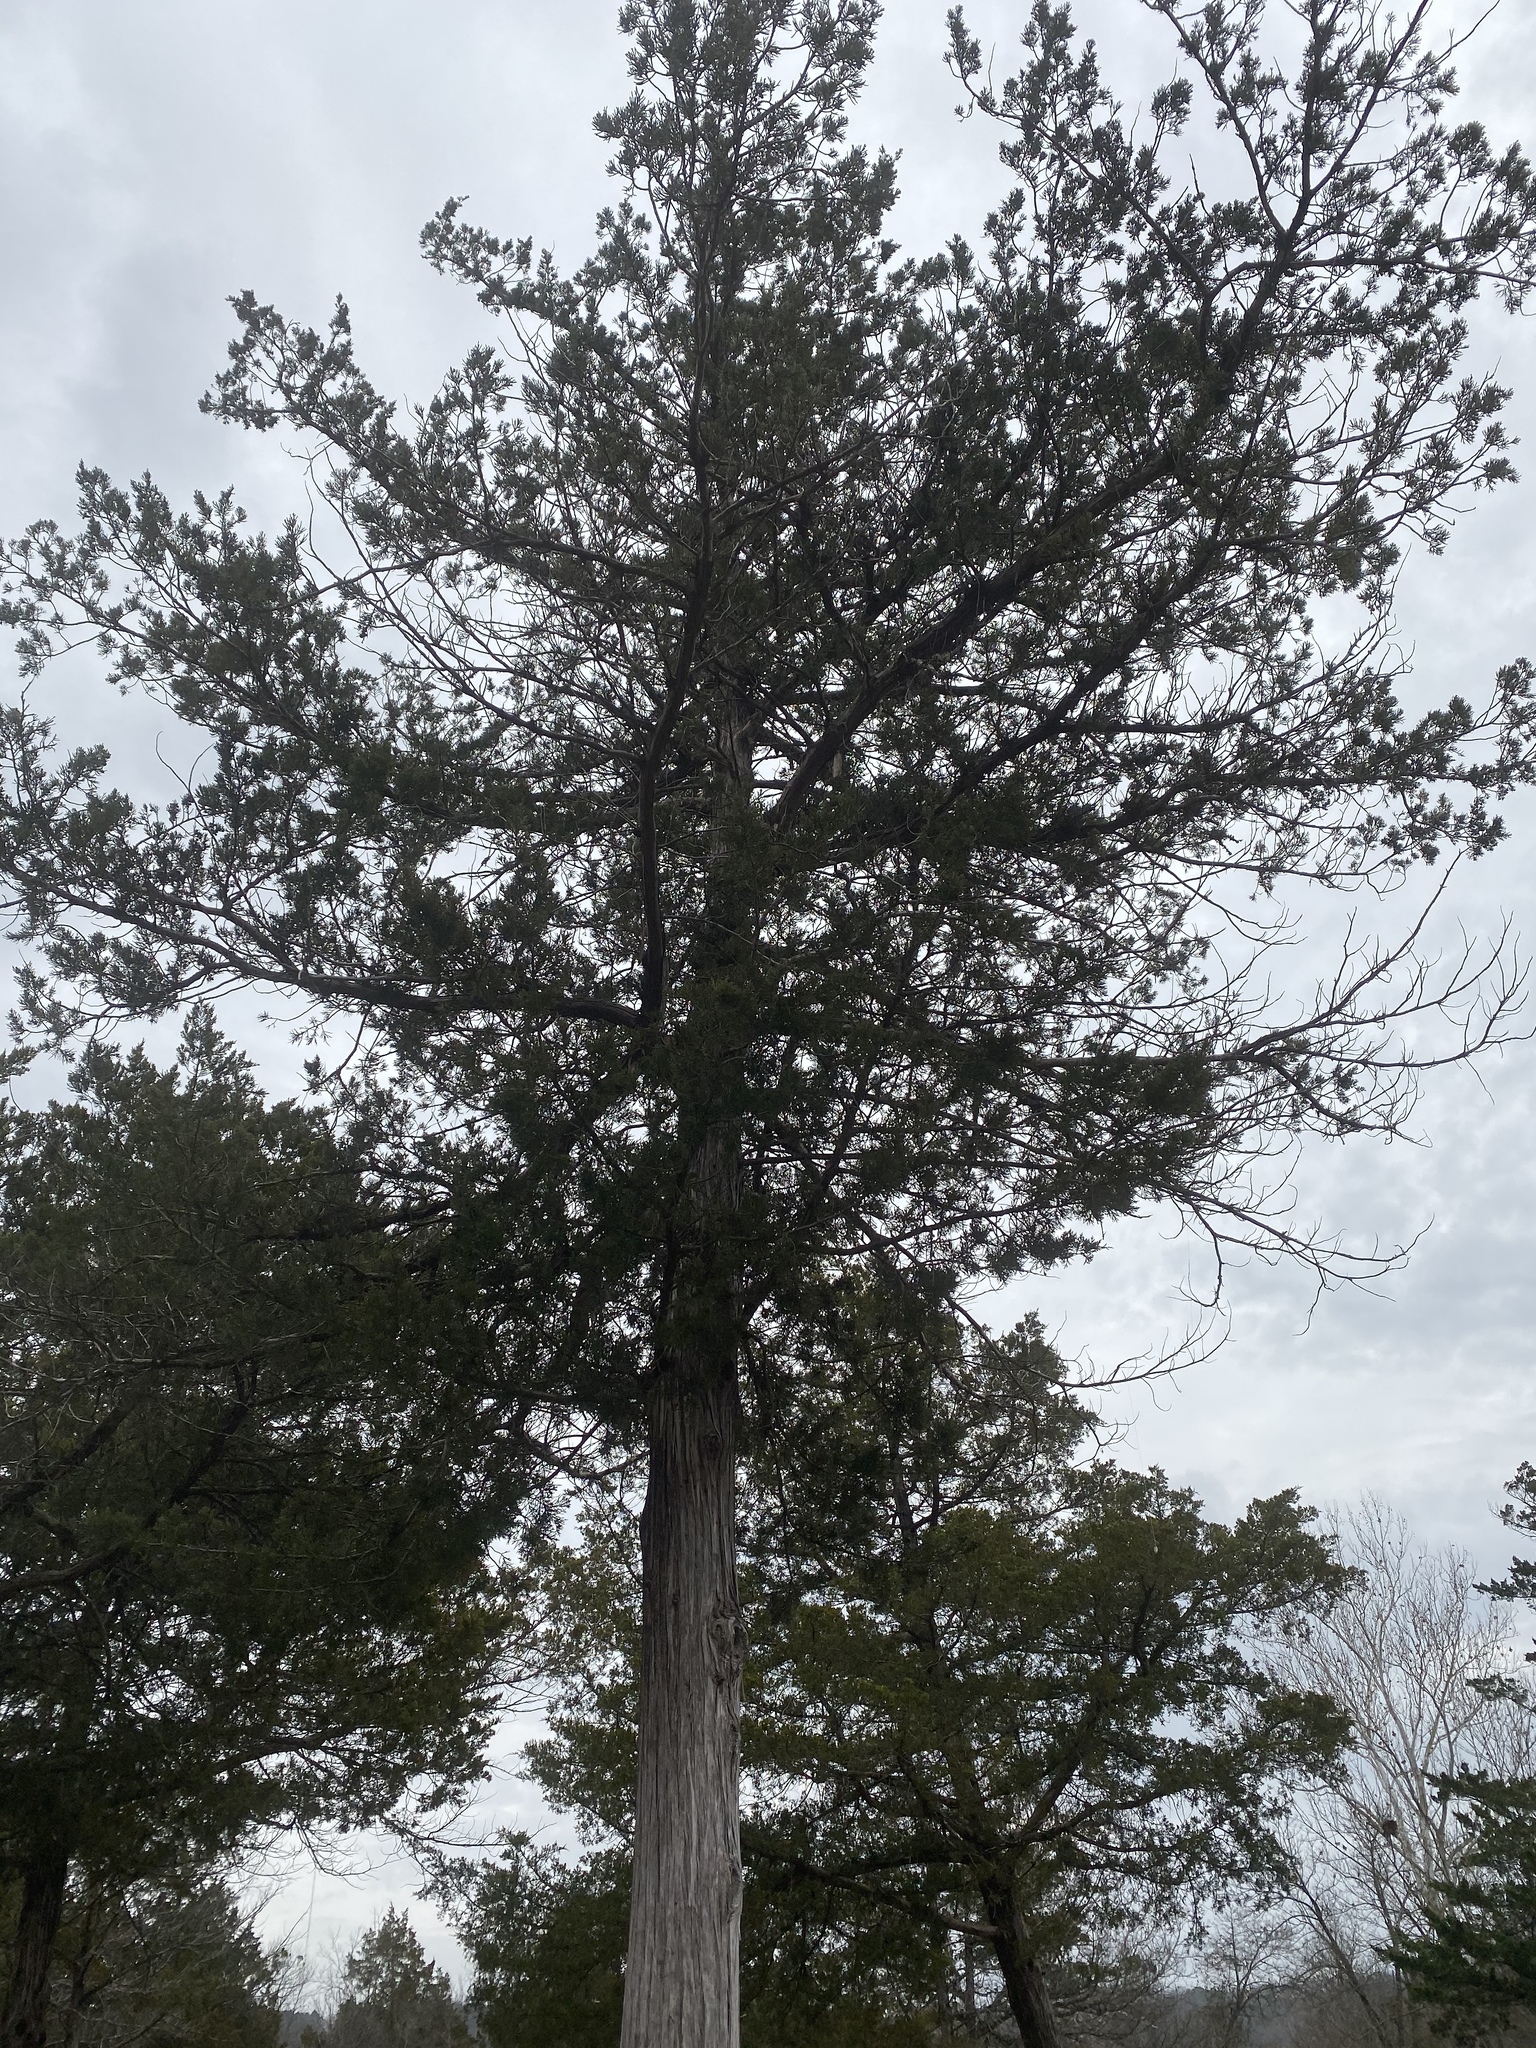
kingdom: Plantae
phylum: Tracheophyta
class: Pinopsida
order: Pinales
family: Cupressaceae
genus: Juniperus
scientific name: Juniperus virginiana
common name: Red juniper
